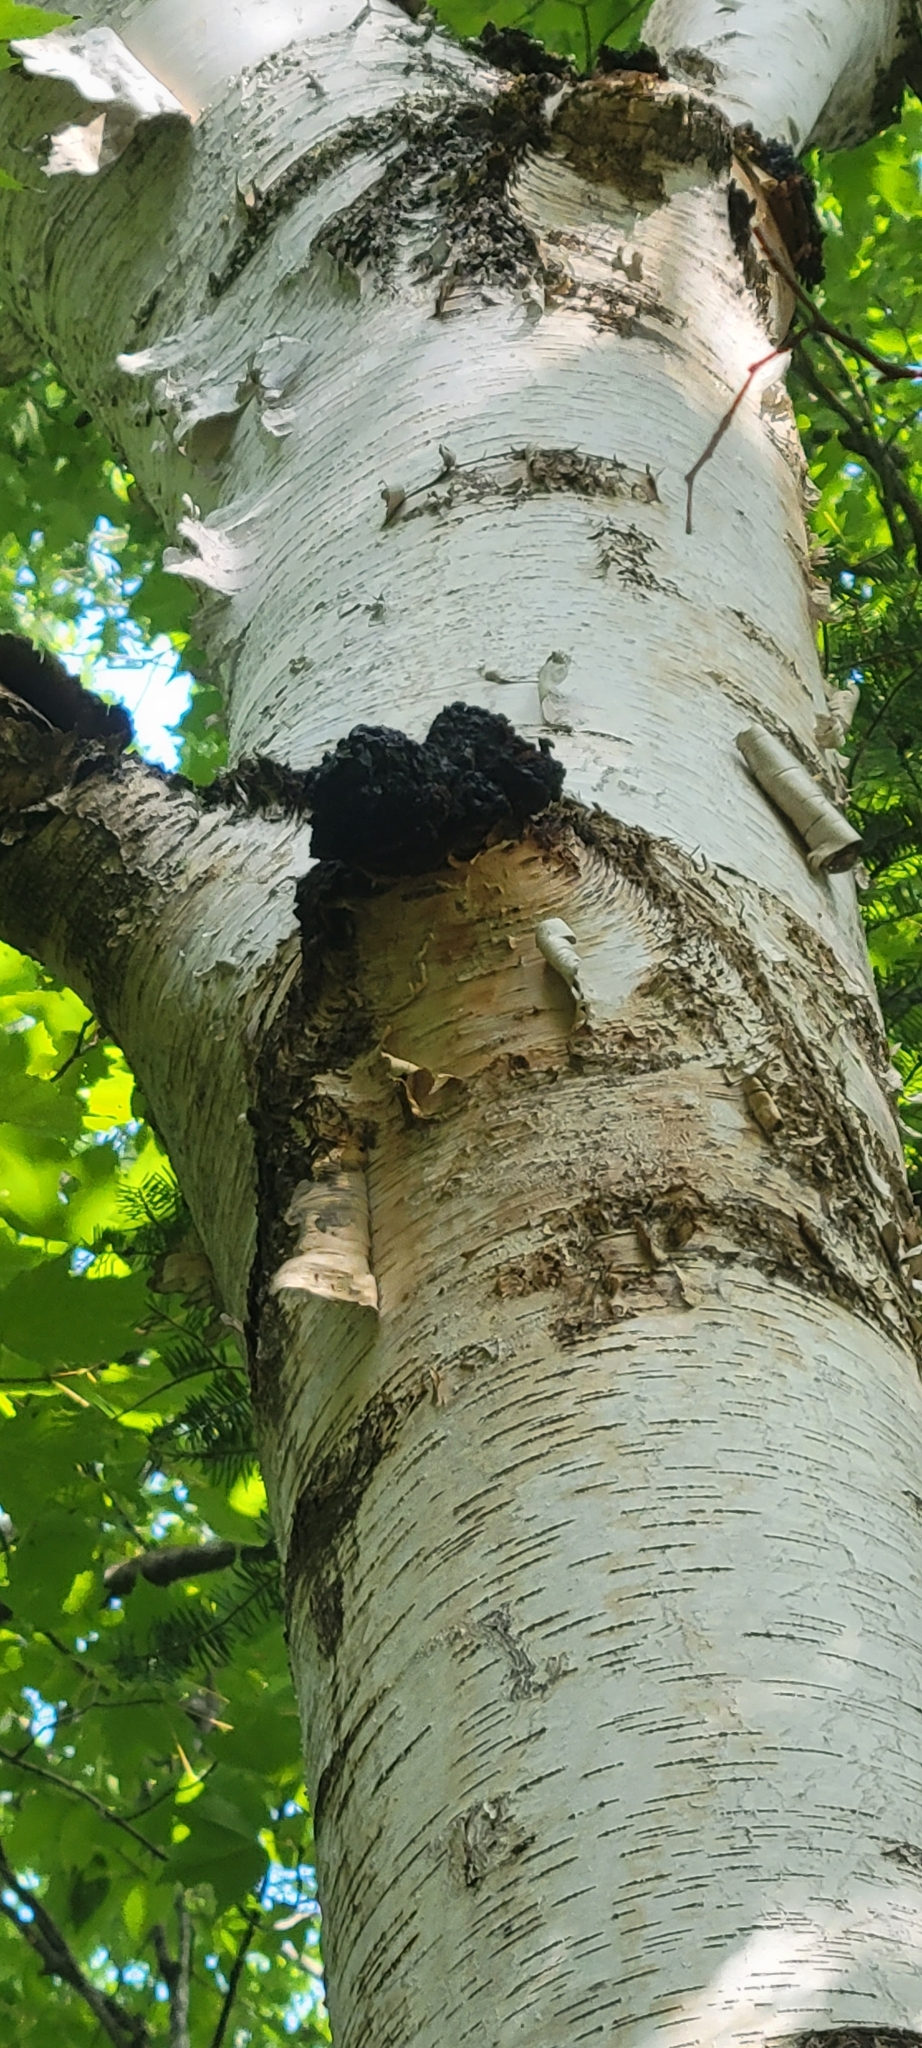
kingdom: Fungi
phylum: Basidiomycota
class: Agaricomycetes
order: Hymenochaetales
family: Hymenochaetaceae
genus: Inonotus
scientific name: Inonotus obliquus
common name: Chaga
